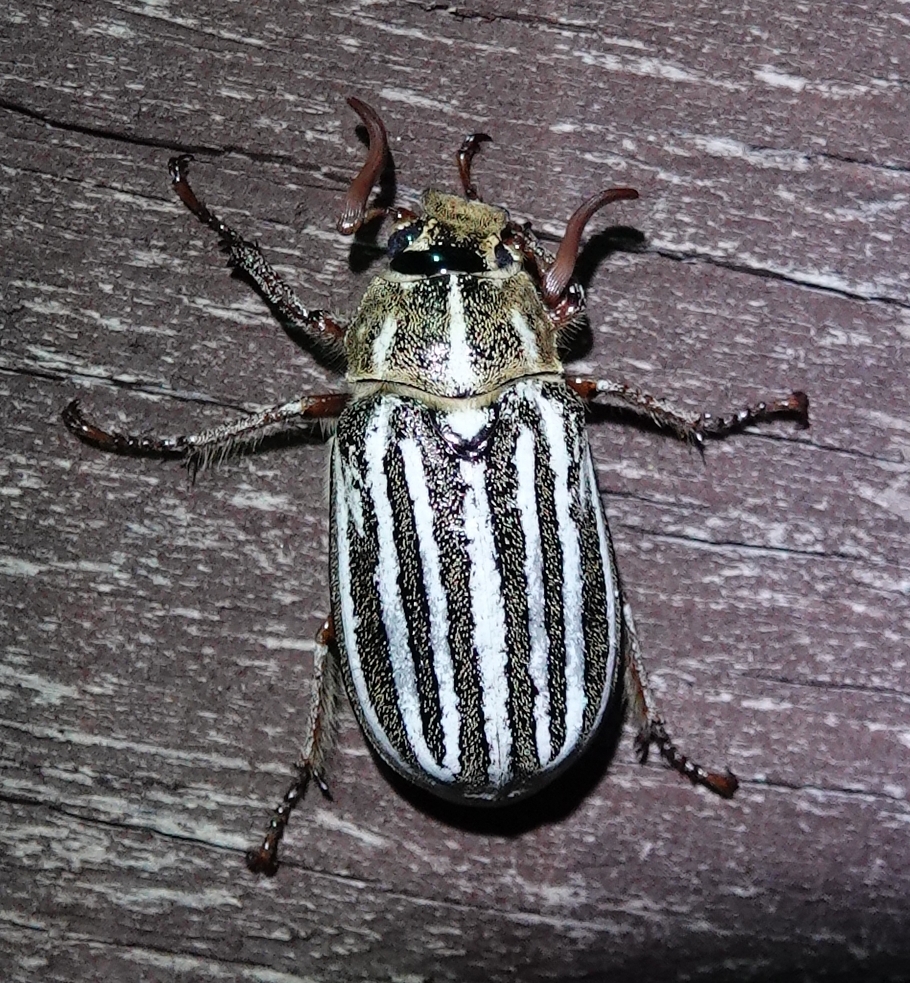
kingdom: Animalia
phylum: Arthropoda
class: Insecta
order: Coleoptera
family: Scarabaeidae
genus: Polyphylla
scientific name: Polyphylla decemlineata
